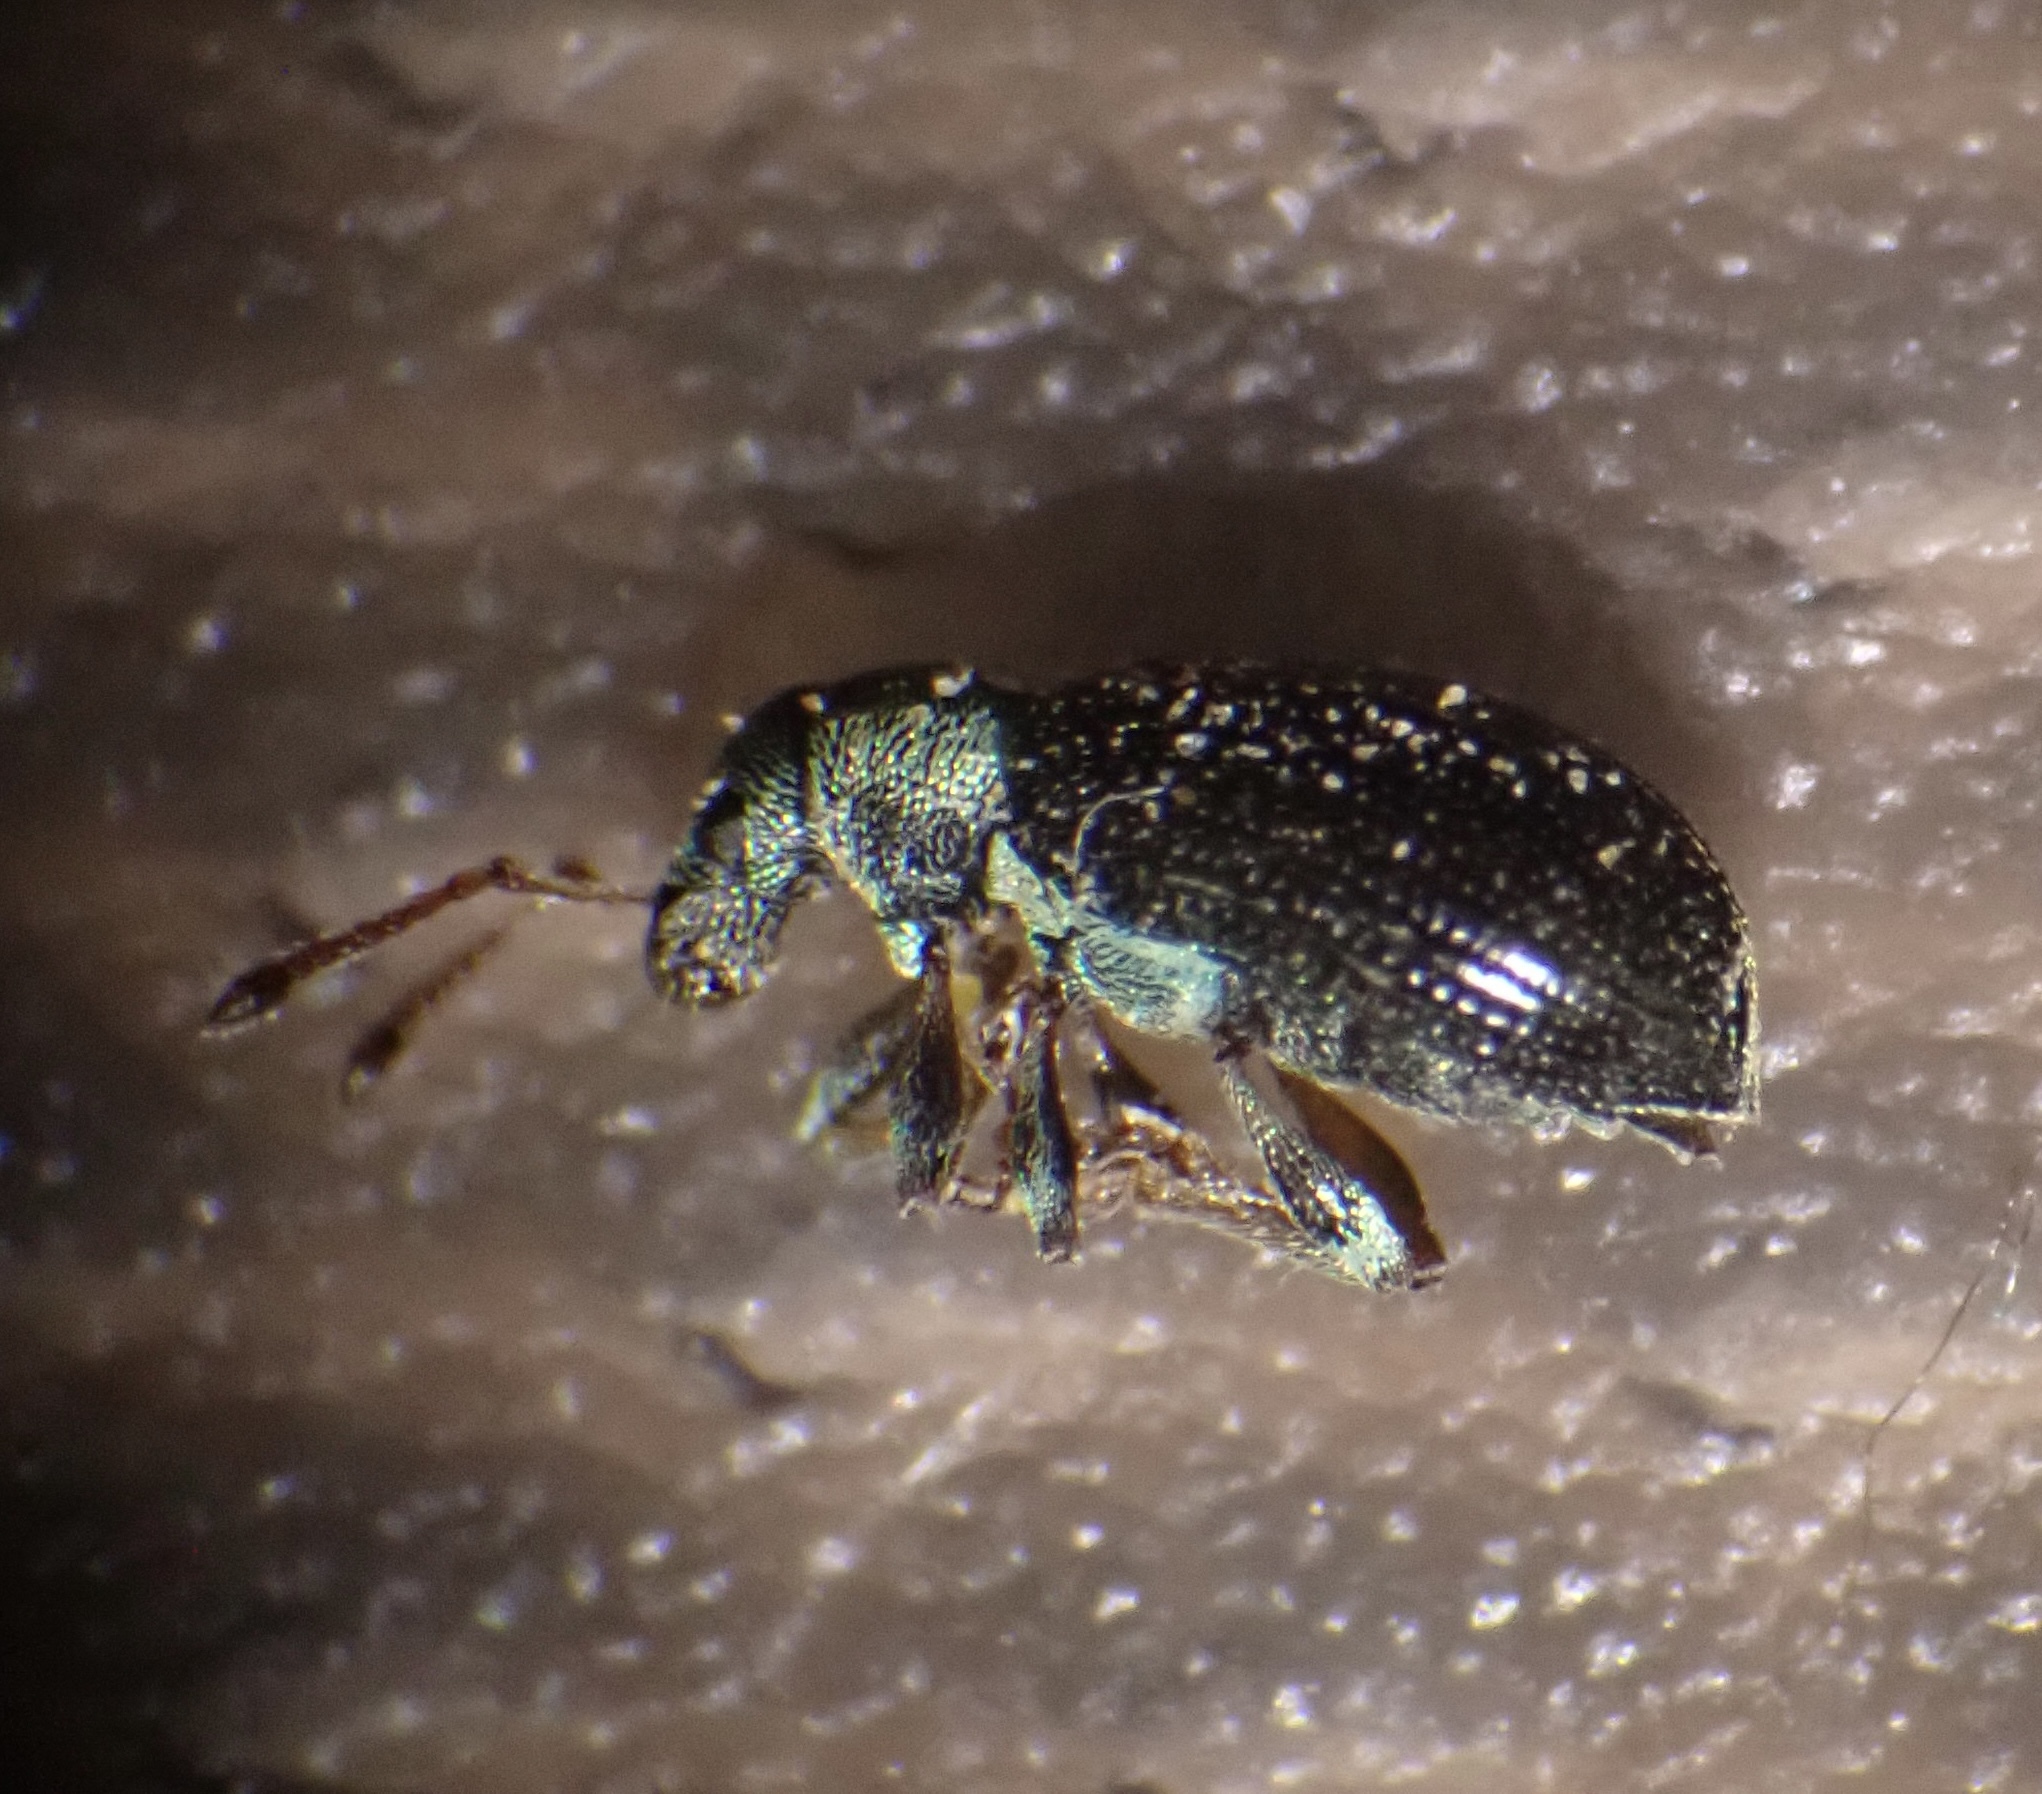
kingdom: Animalia
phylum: Arthropoda
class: Insecta
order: Coleoptera
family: Curculionidae
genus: Phyllobius
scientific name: Phyllobius viridicollis
